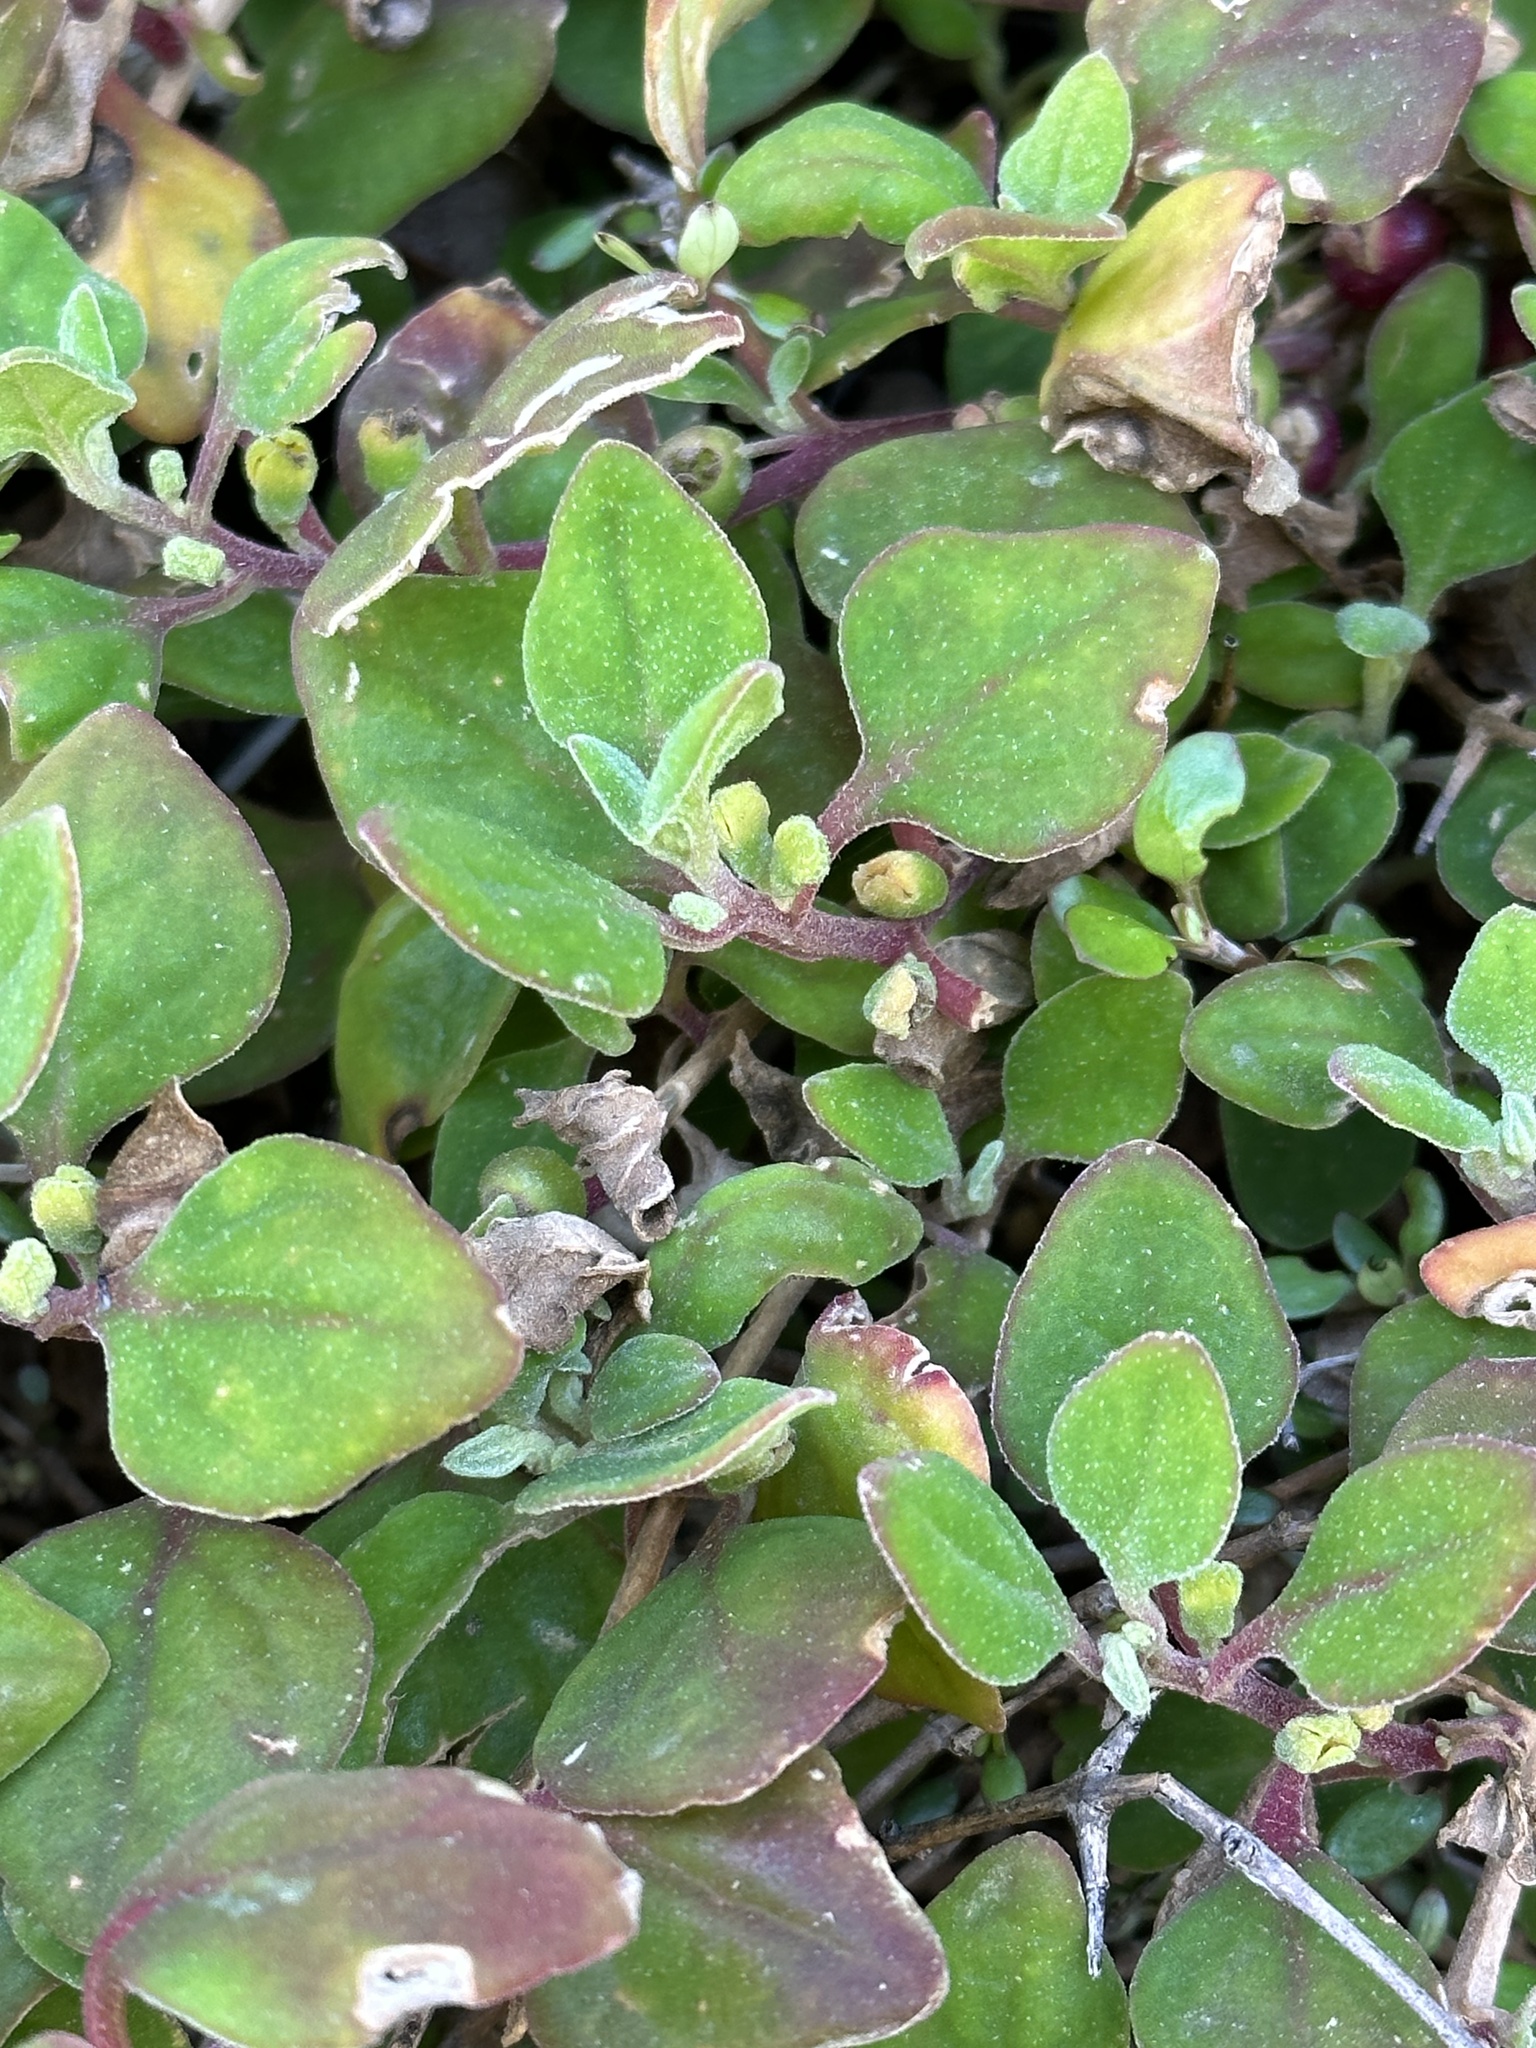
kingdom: Plantae
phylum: Tracheophyta
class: Magnoliopsida
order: Caryophyllales
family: Aizoaceae
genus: Tetragonia
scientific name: Tetragonia implexicoma
